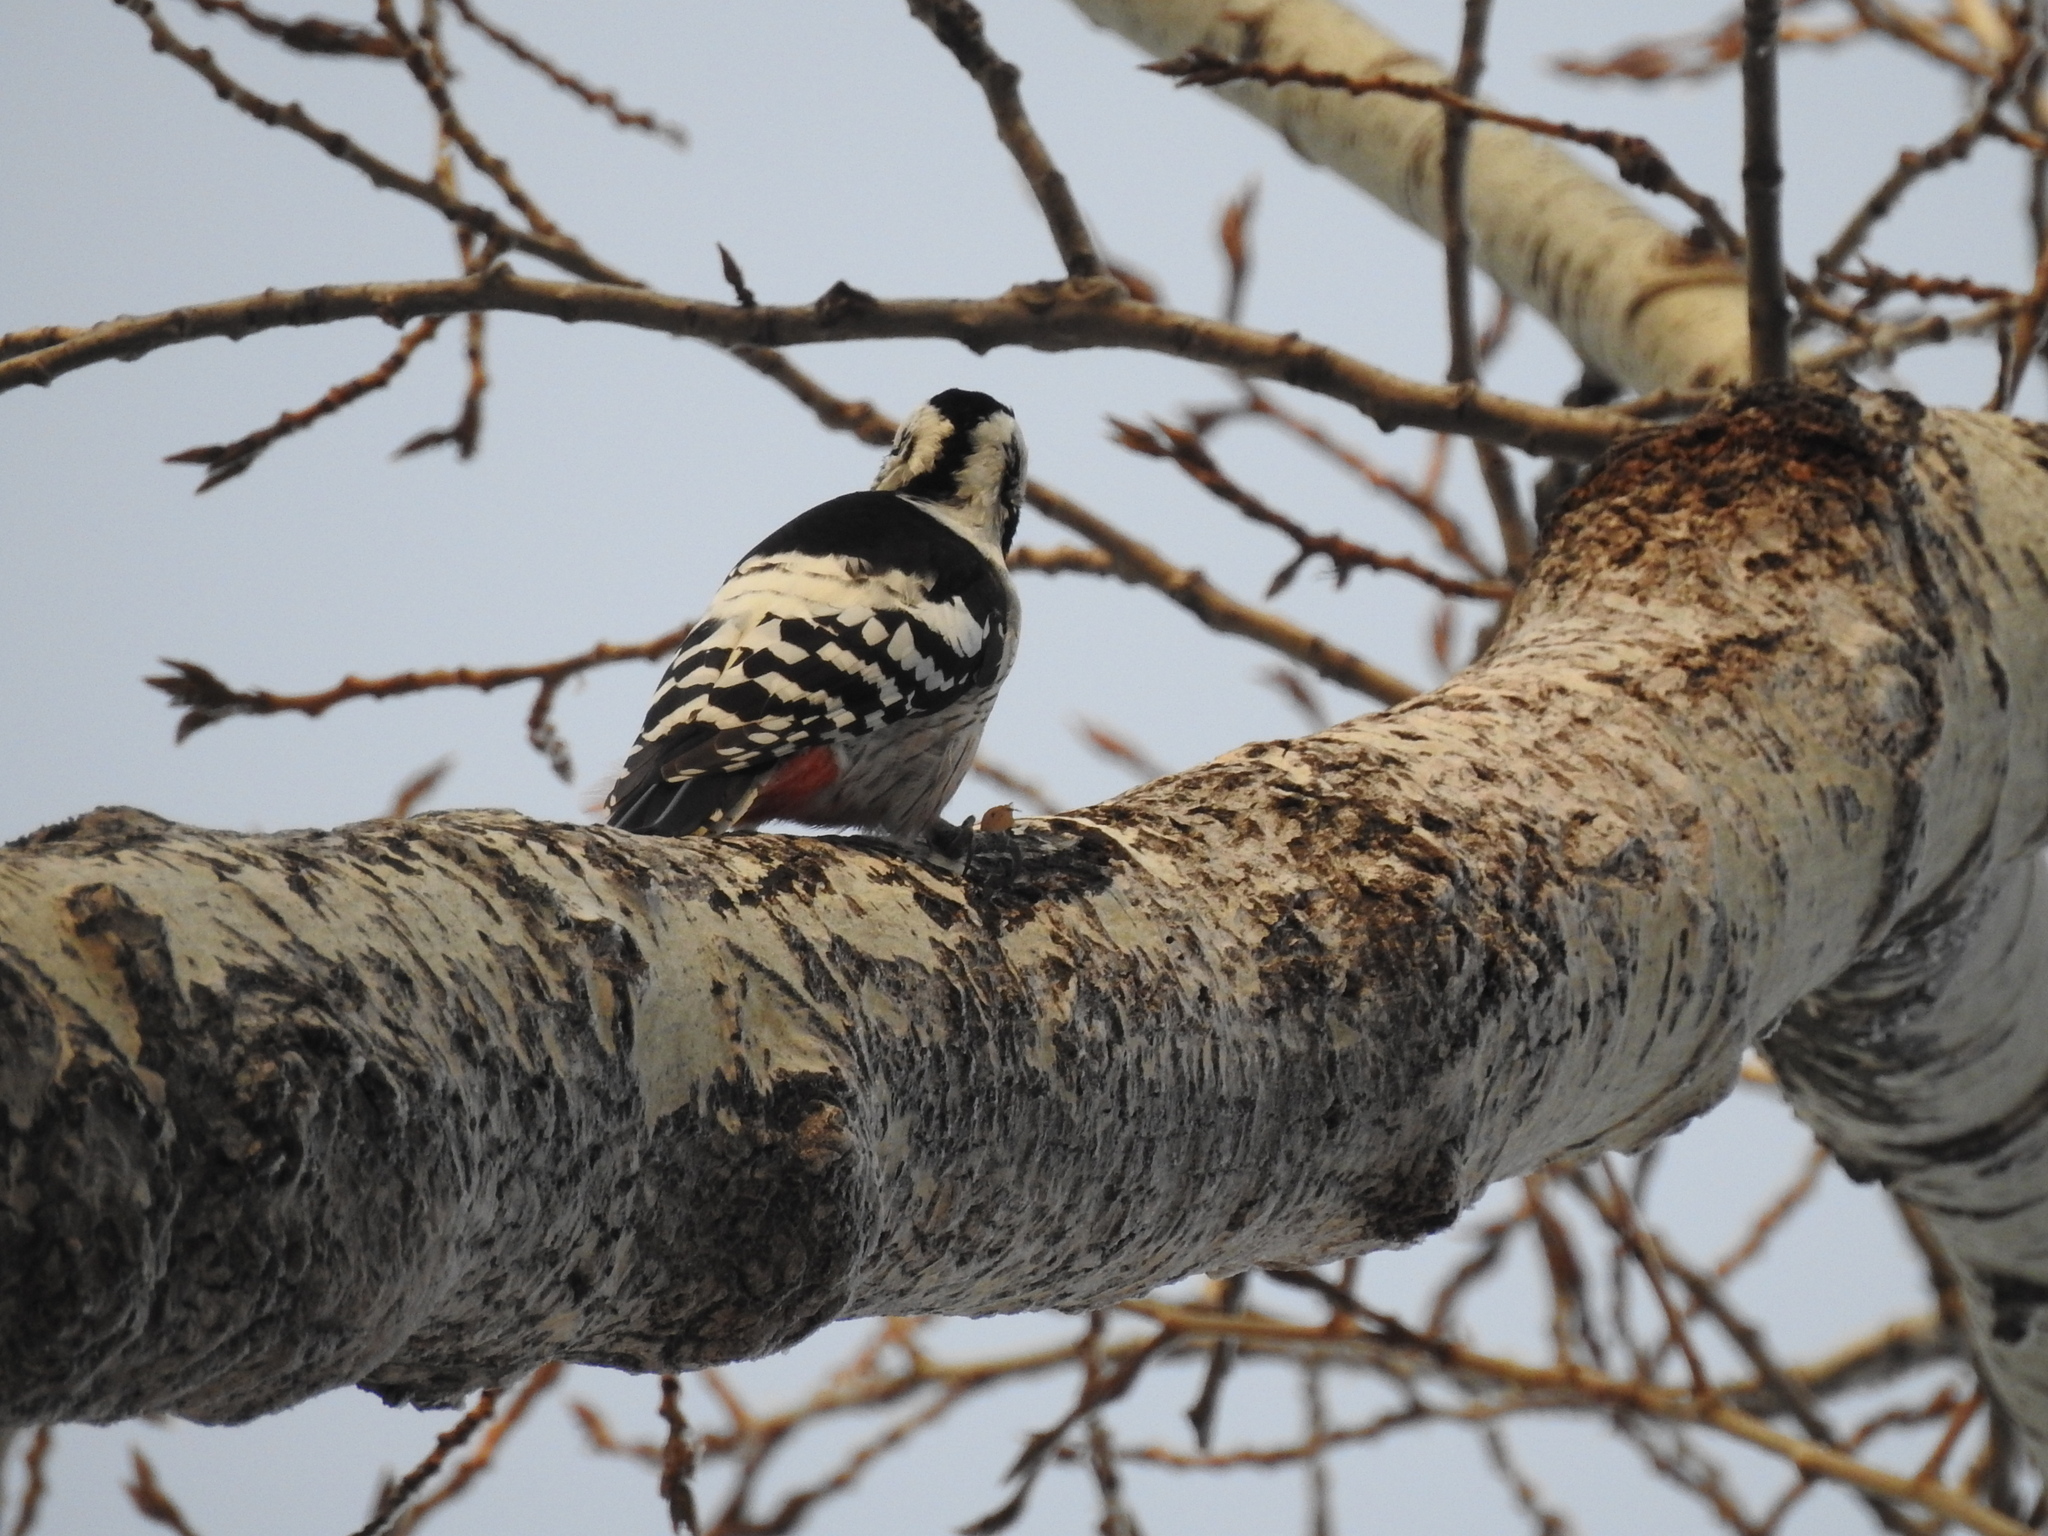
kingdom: Animalia
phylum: Chordata
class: Aves
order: Piciformes
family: Picidae
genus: Dendrocopos
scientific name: Dendrocopos leucotos
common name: White-backed woodpecker
